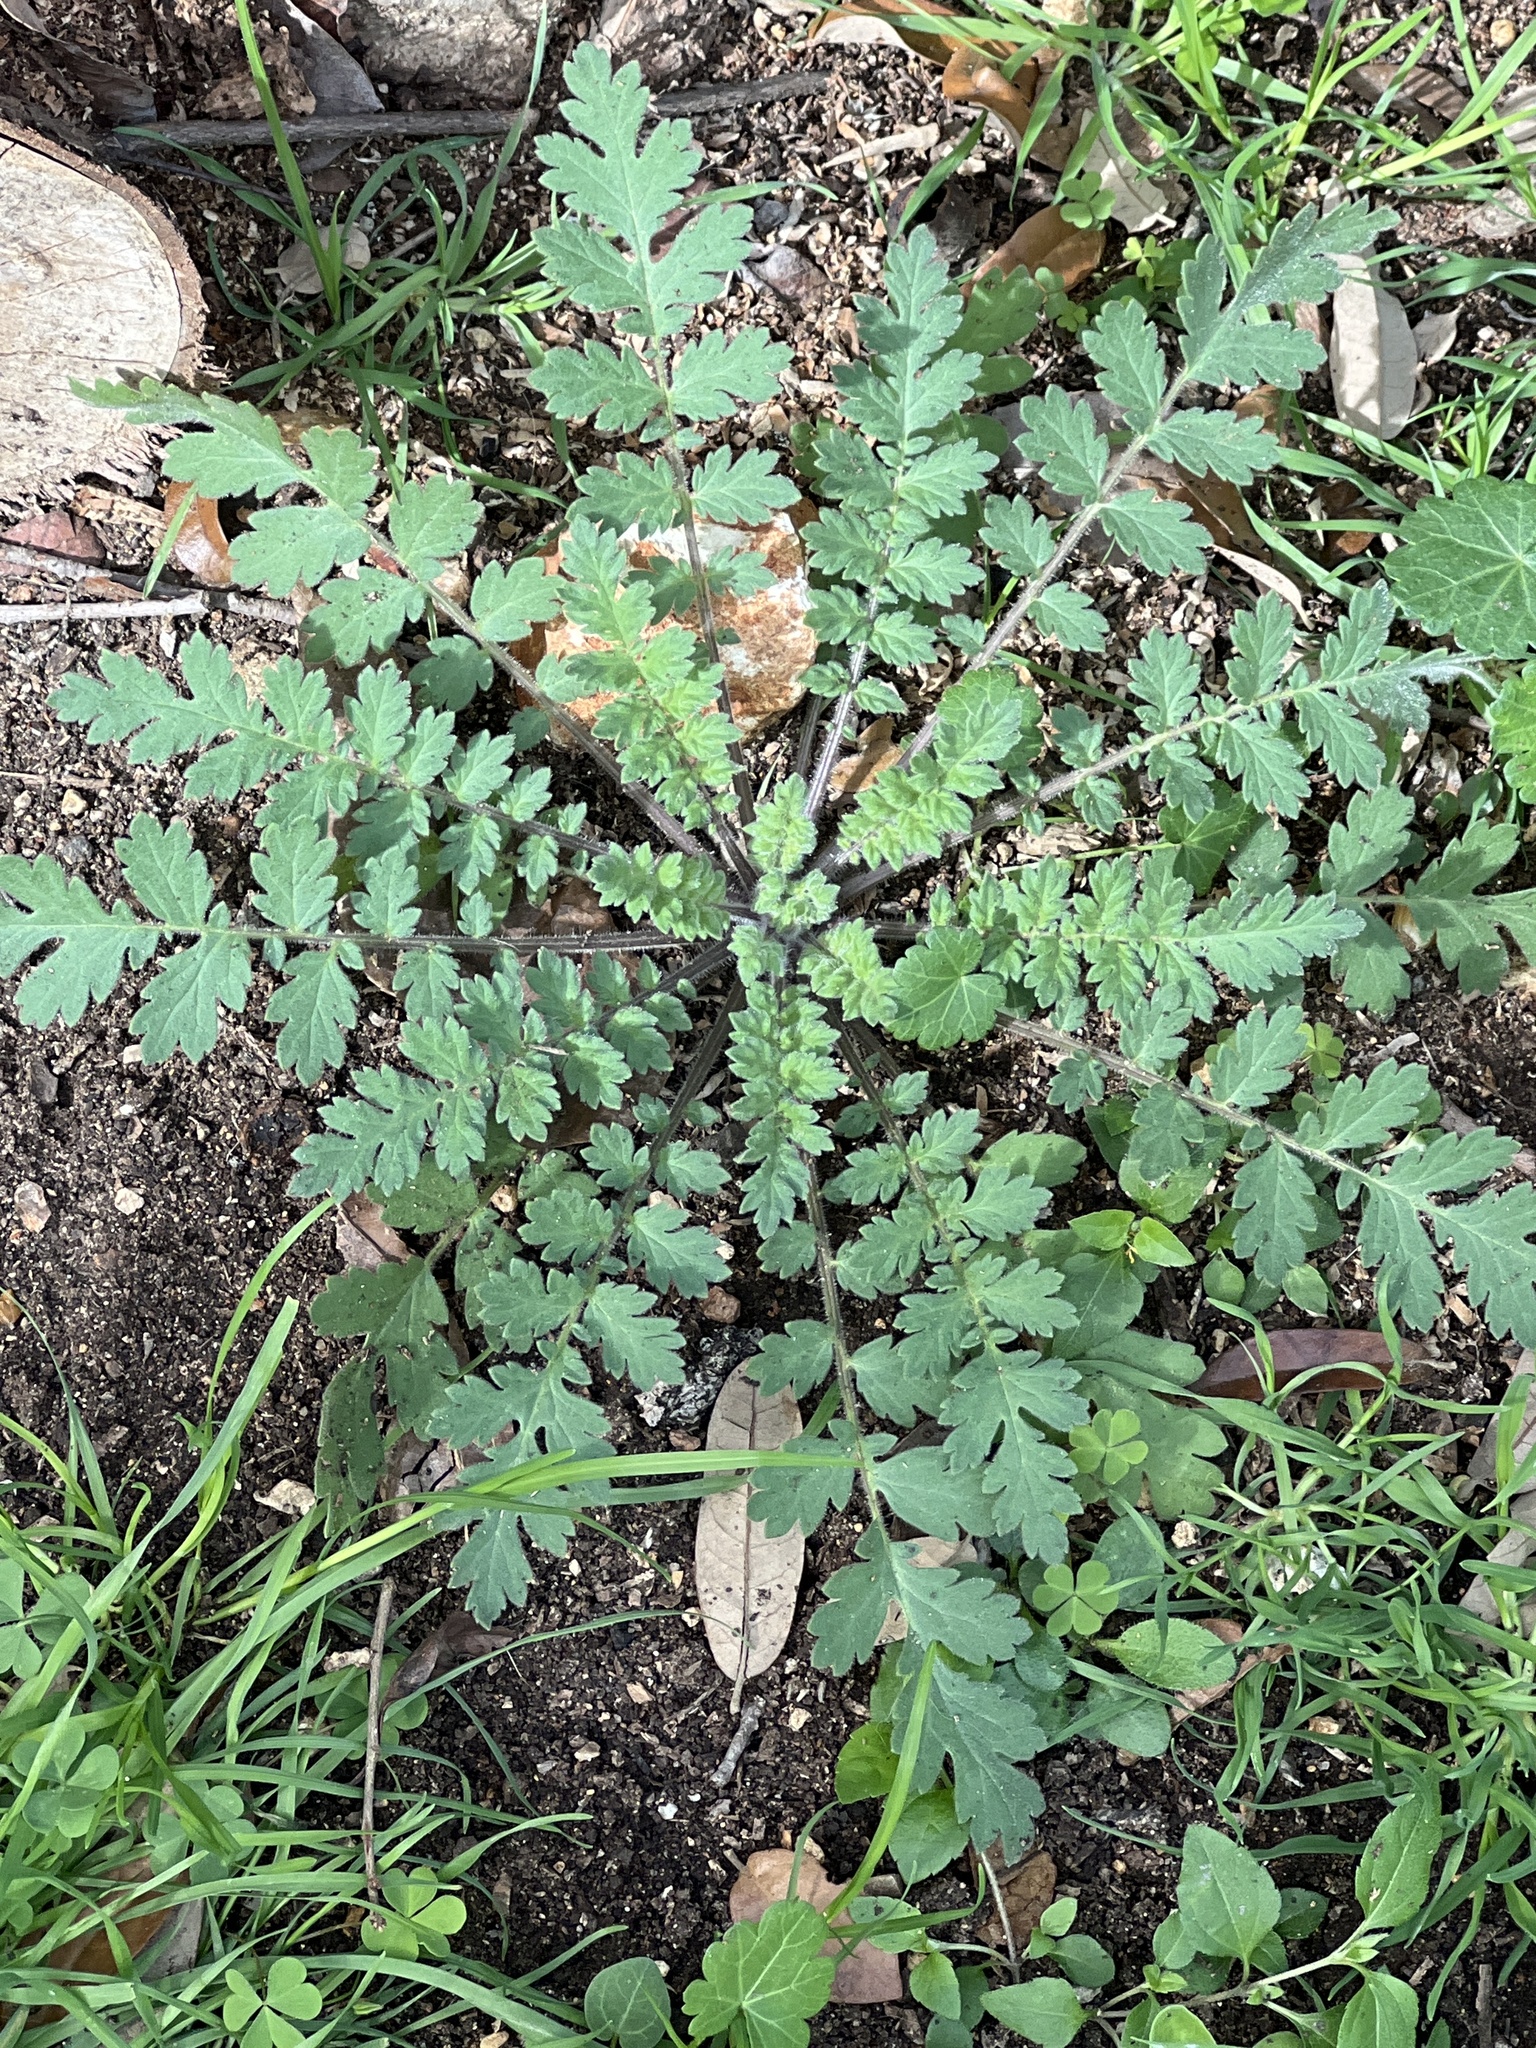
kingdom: Plantae
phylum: Tracheophyta
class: Magnoliopsida
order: Boraginales
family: Hydrophyllaceae
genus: Phacelia
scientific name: Phacelia congesta
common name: Blue curls
